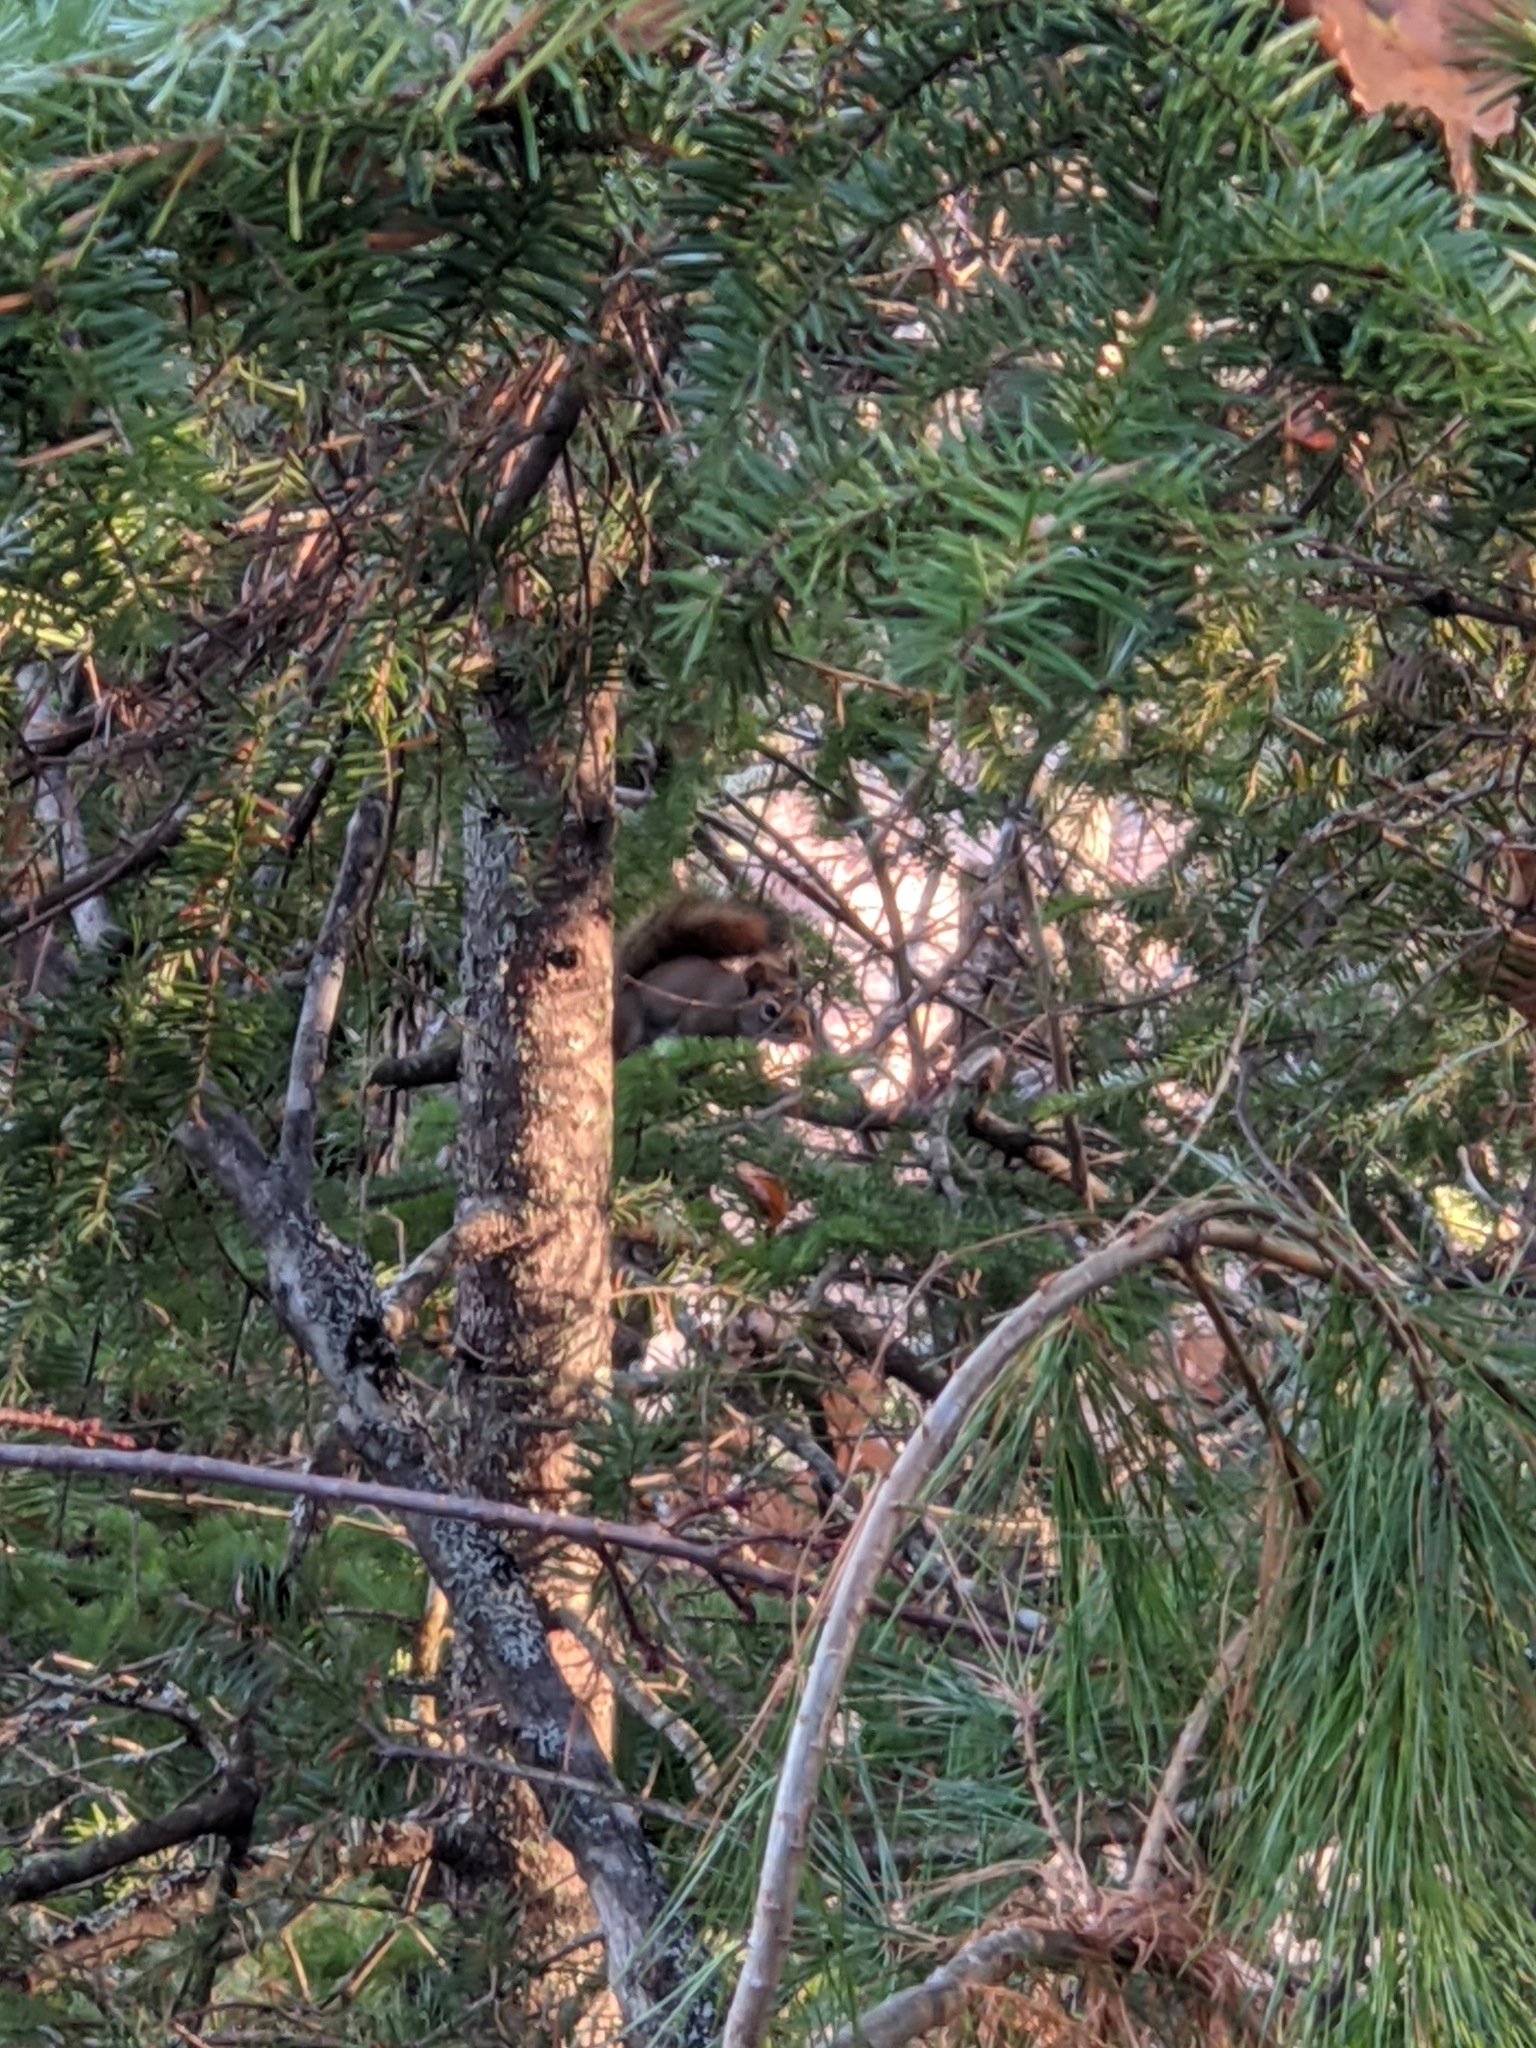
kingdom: Animalia
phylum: Chordata
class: Mammalia
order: Rodentia
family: Sciuridae
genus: Tamiasciurus
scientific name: Tamiasciurus hudsonicus
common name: Red squirrel
